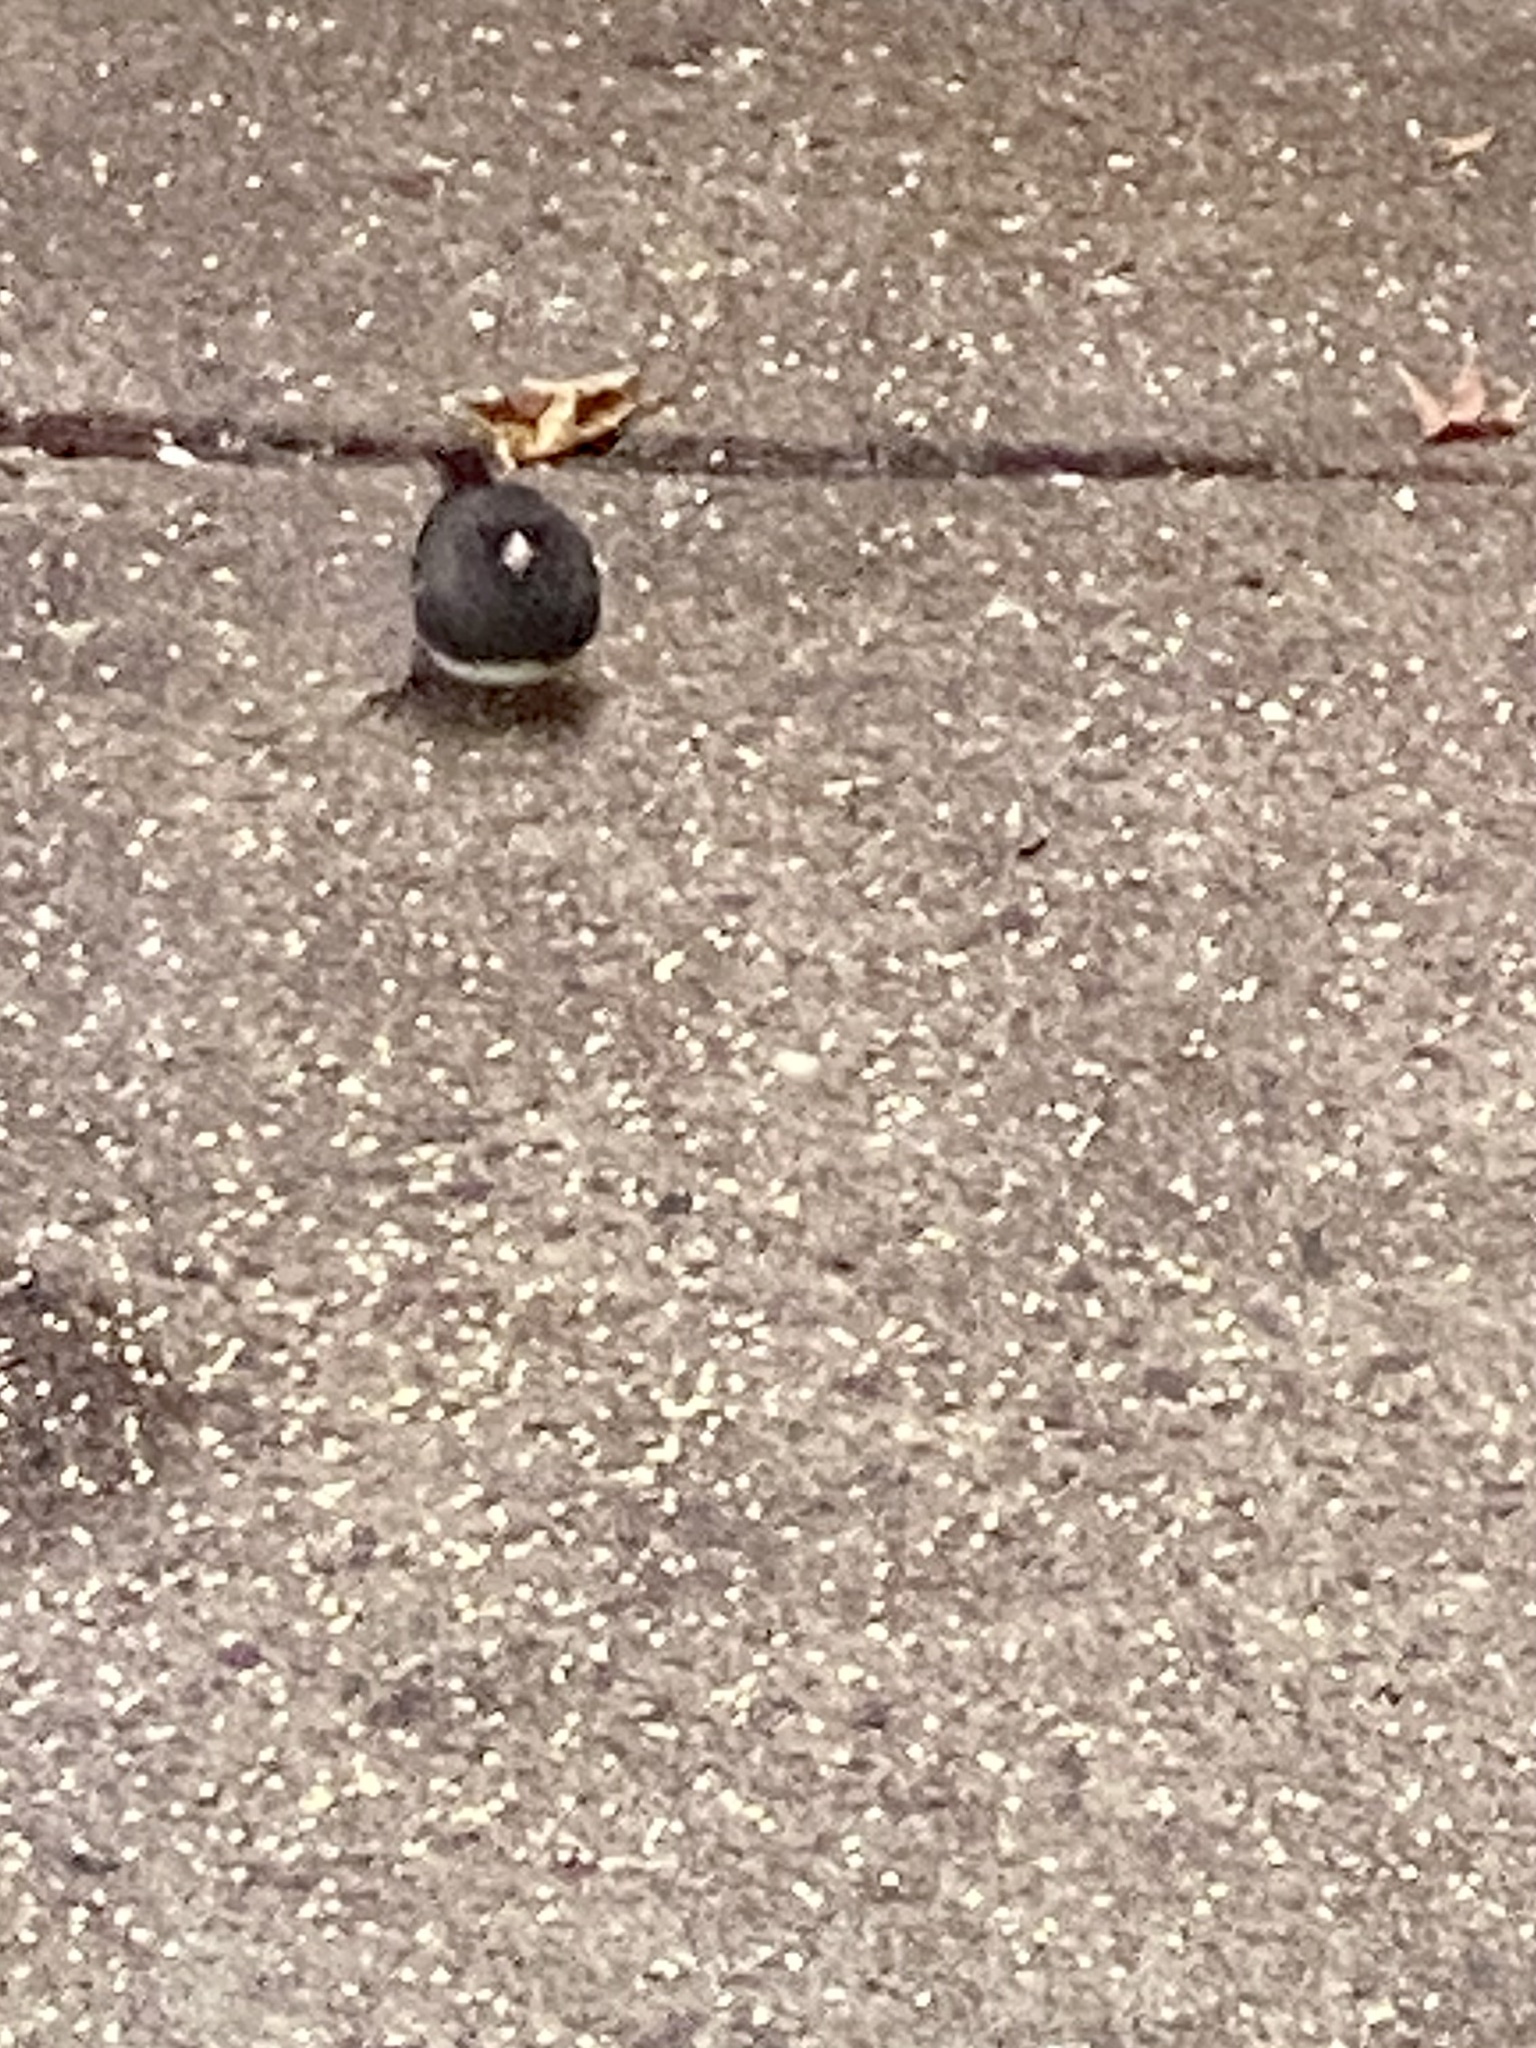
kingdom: Animalia
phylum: Chordata
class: Aves
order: Passeriformes
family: Passerellidae
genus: Junco
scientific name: Junco hyemalis
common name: Dark-eyed junco
